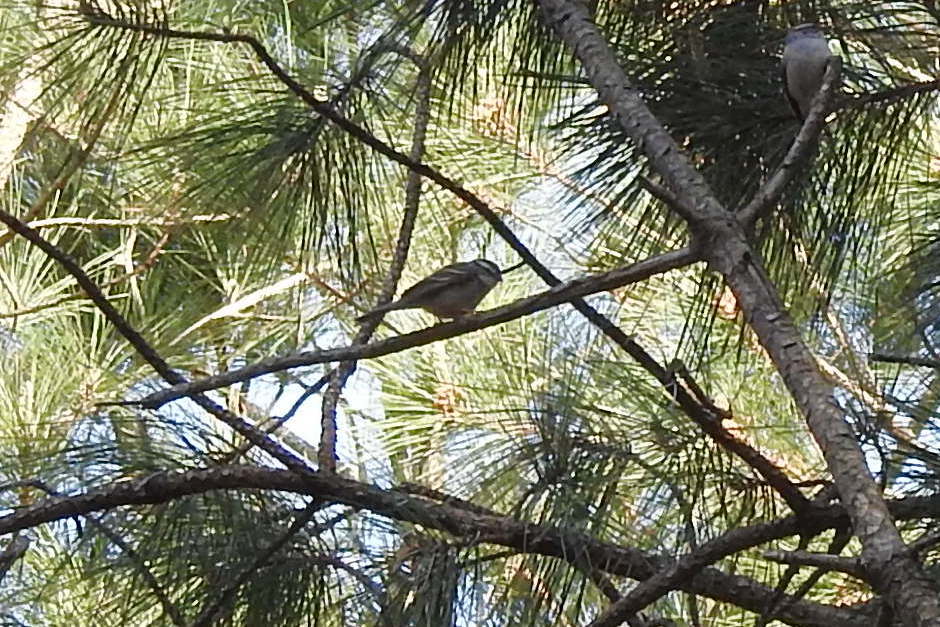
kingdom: Animalia
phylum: Chordata
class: Aves
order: Passeriformes
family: Passerellidae
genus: Zonotrichia
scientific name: Zonotrichia albicollis
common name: White-throated sparrow
